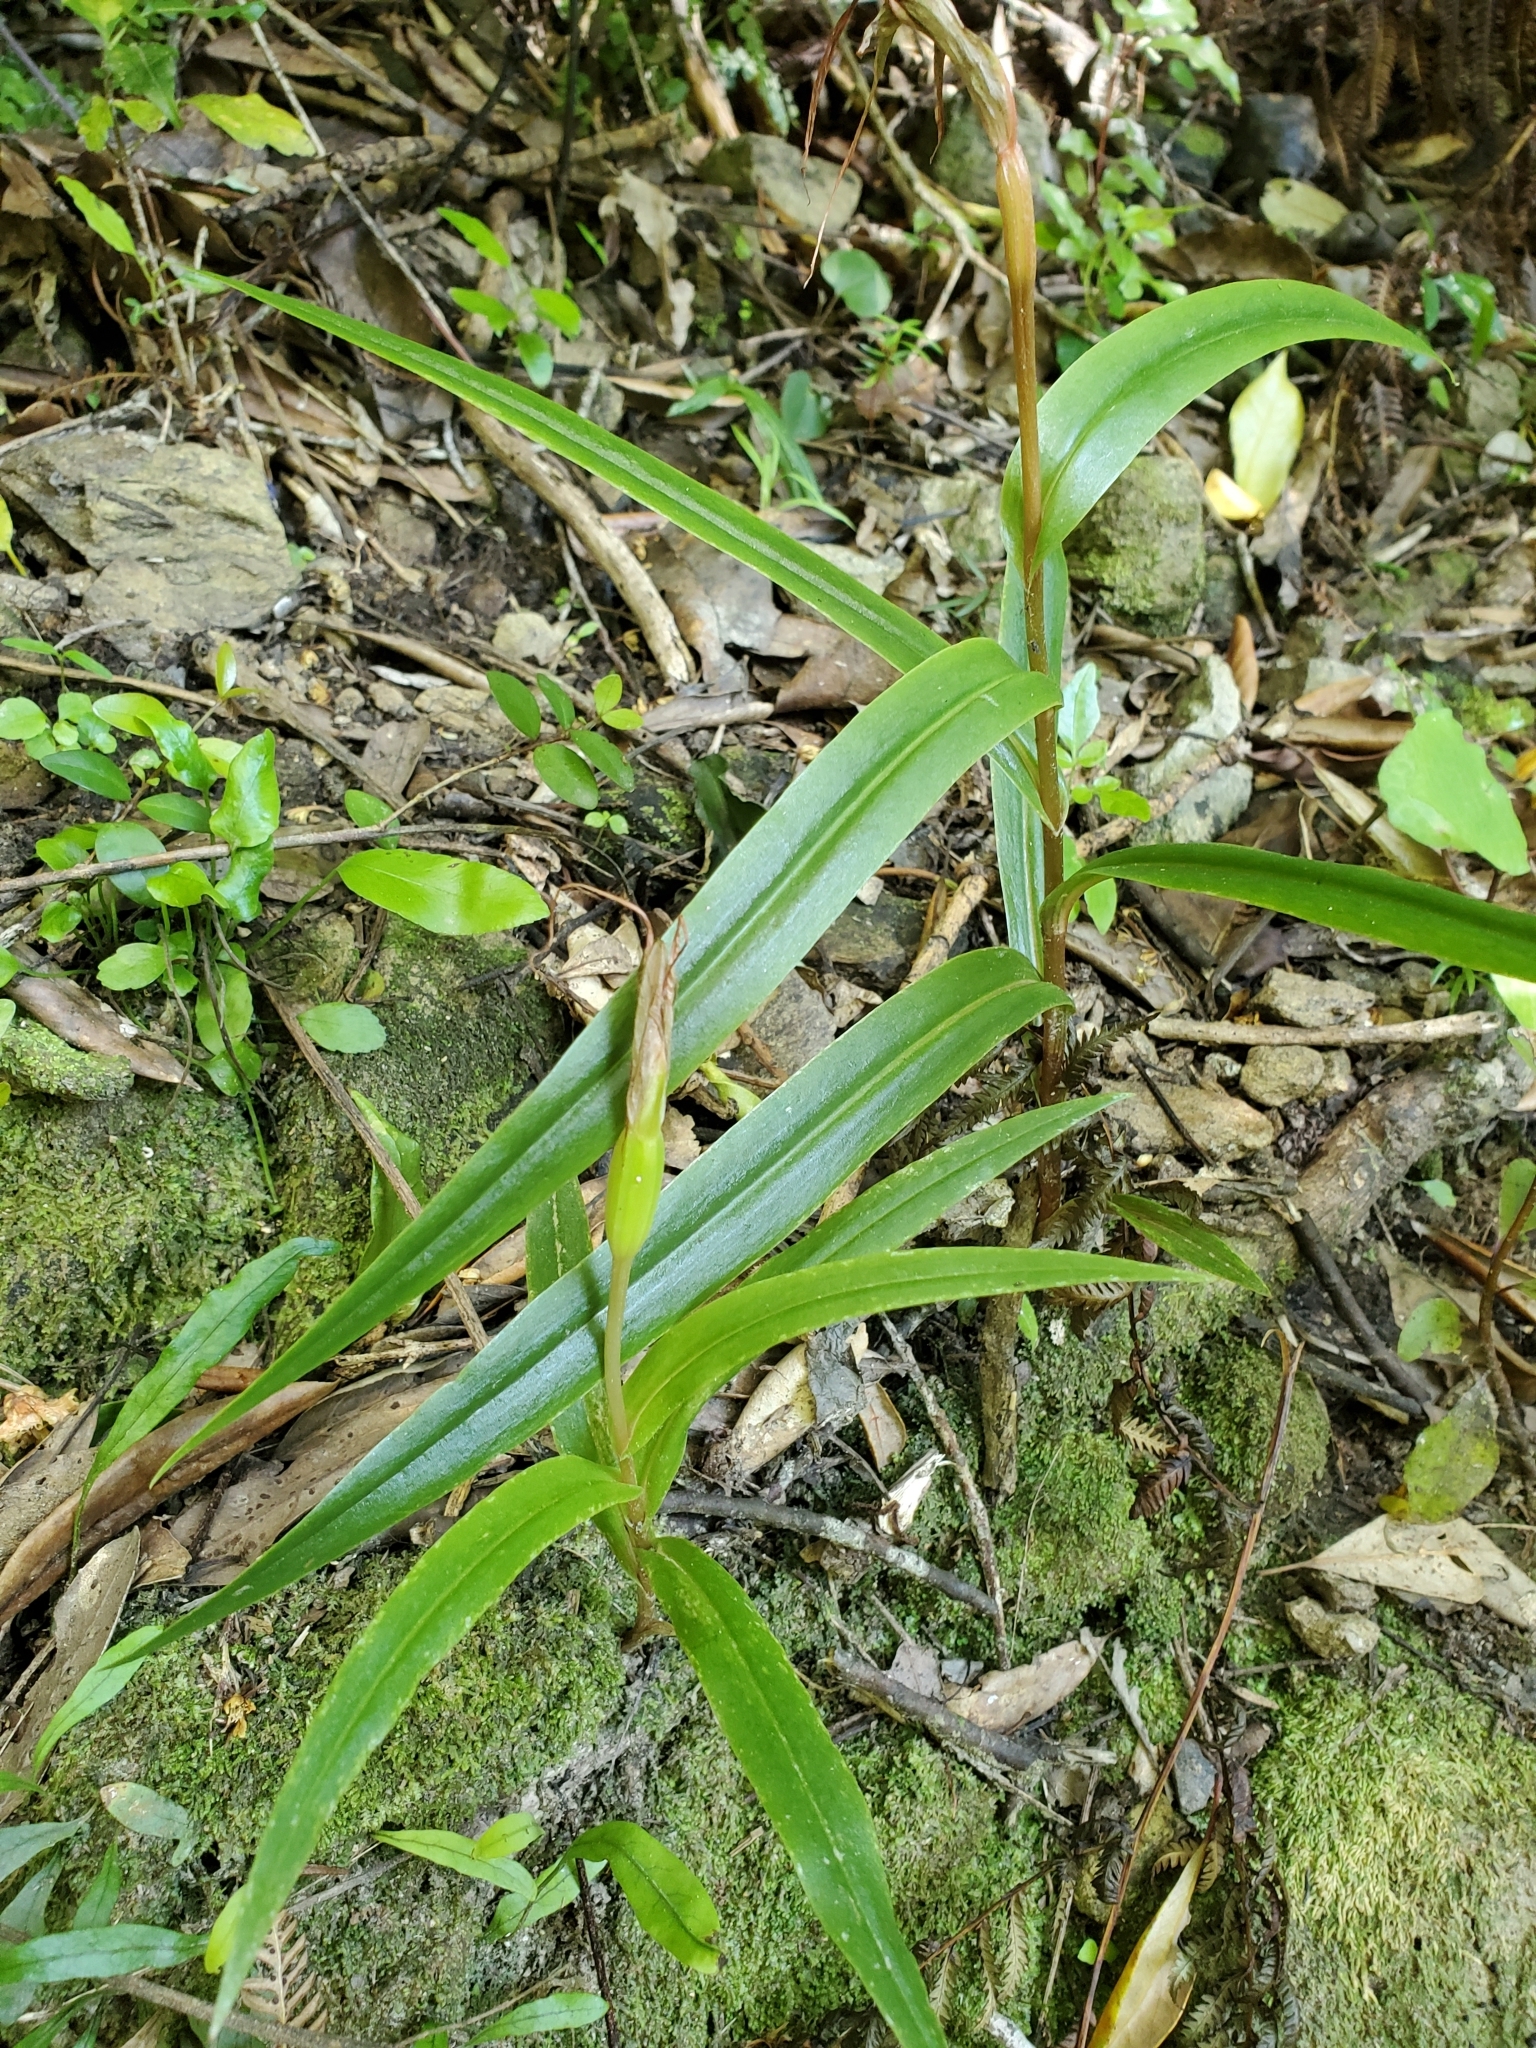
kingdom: Plantae
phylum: Tracheophyta
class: Liliopsida
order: Asparagales
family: Orchidaceae
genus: Pterostylis
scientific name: Pterostylis banksii
